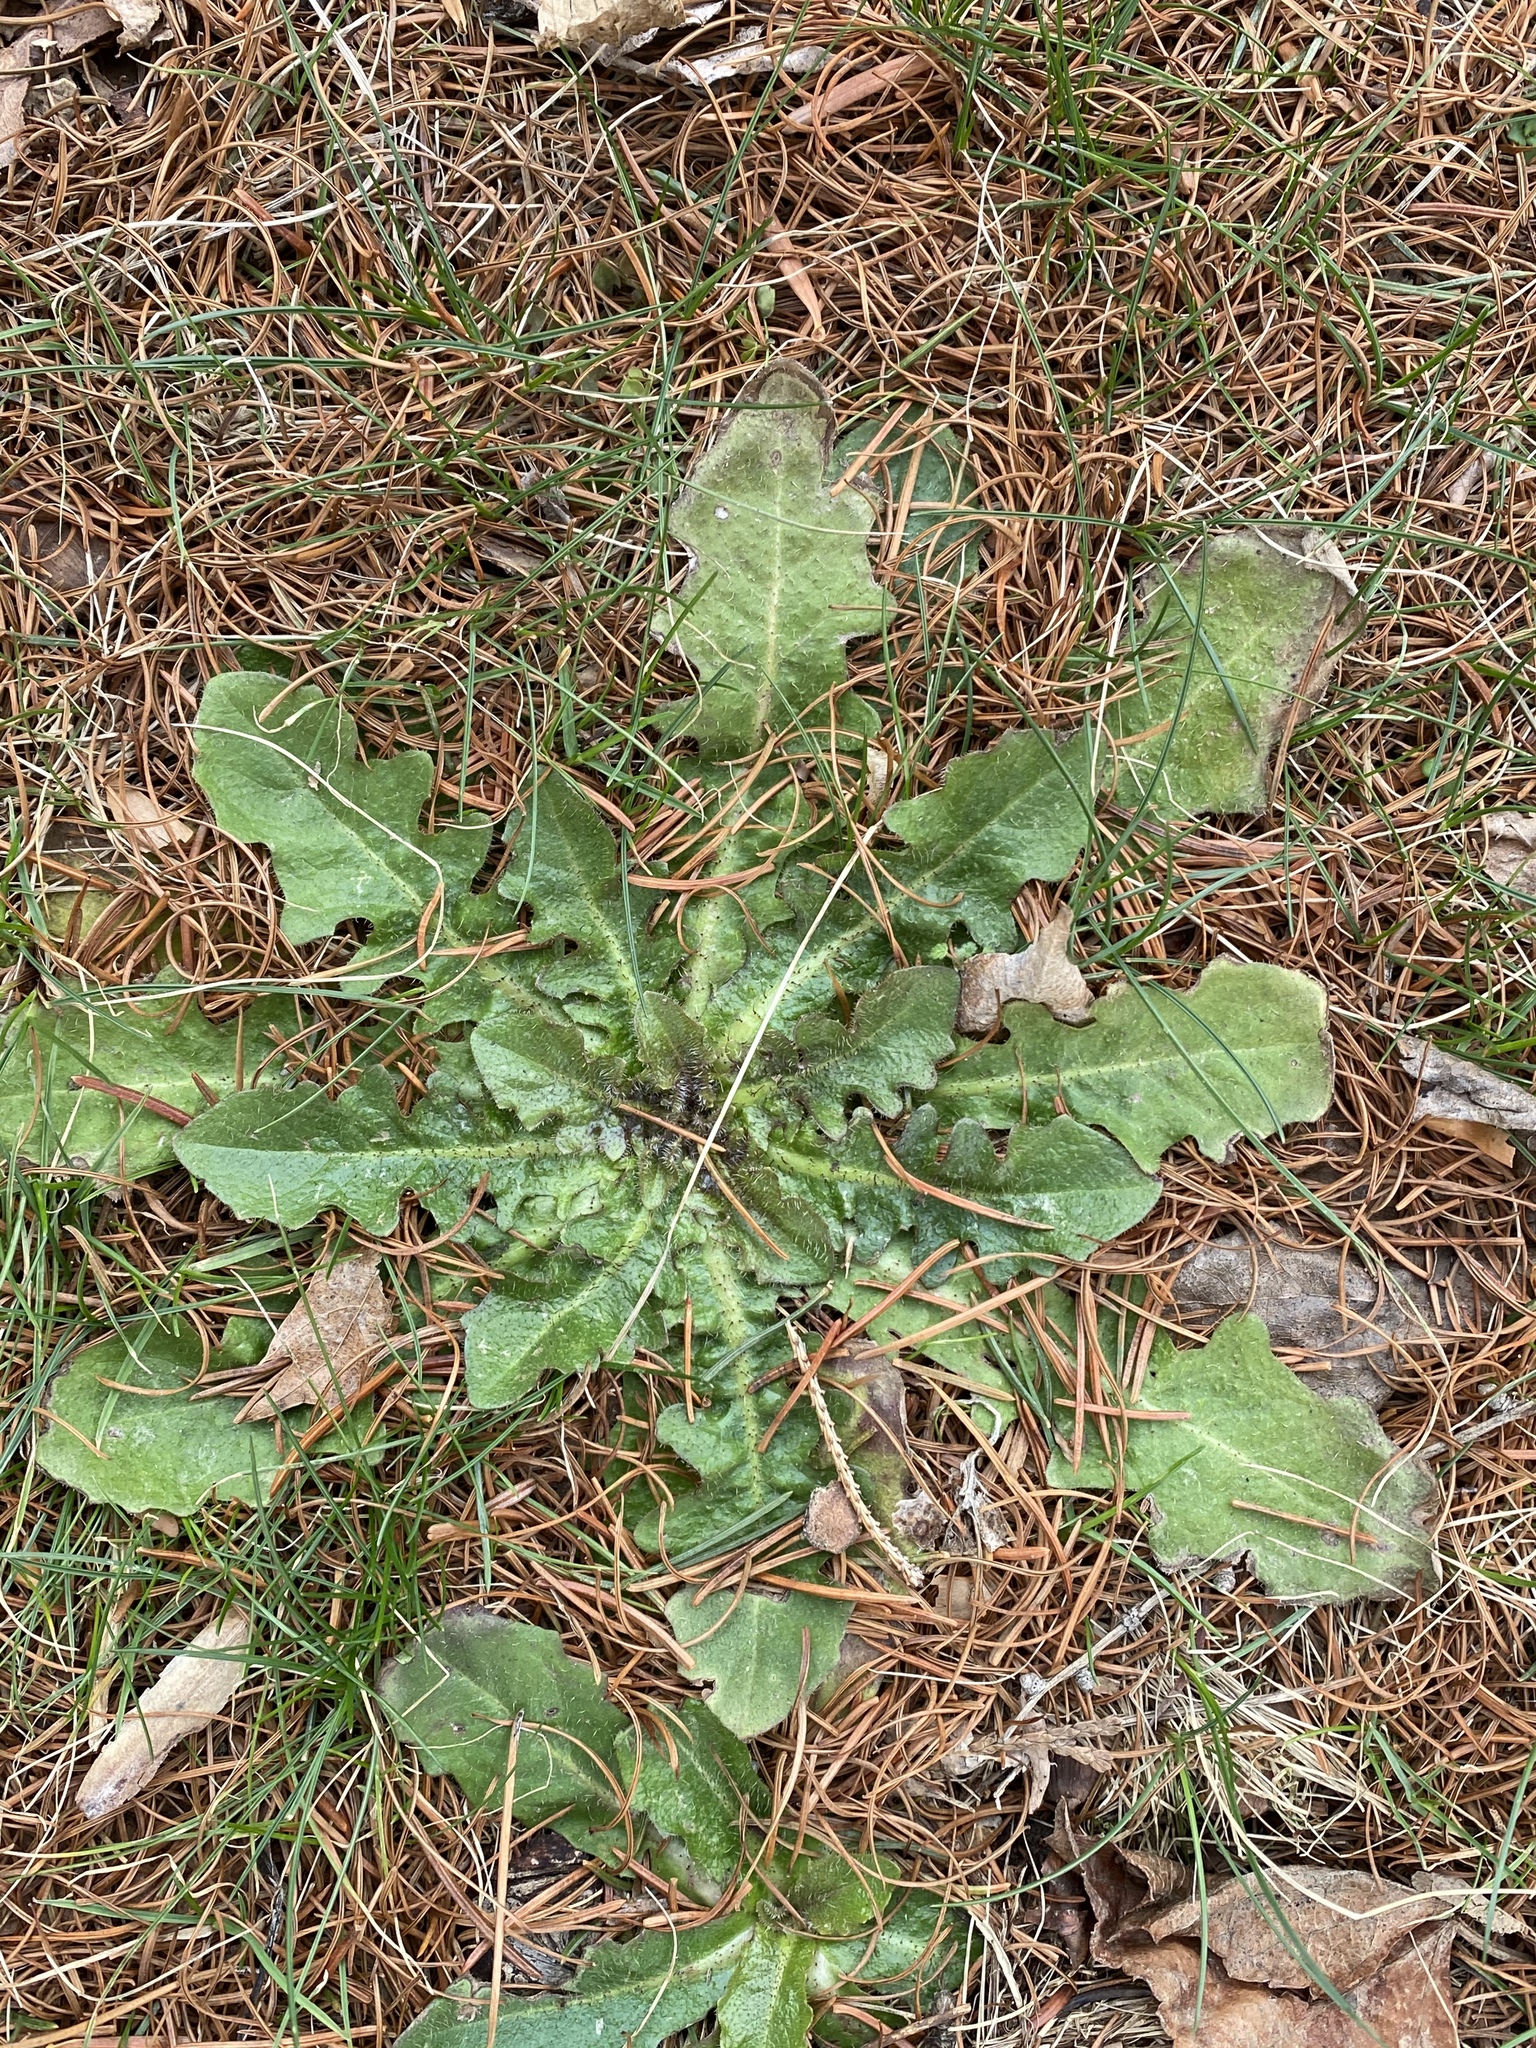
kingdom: Plantae
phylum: Tracheophyta
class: Magnoliopsida
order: Asterales
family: Asteraceae
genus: Hypochaeris
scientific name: Hypochaeris radicata
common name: Flatweed
